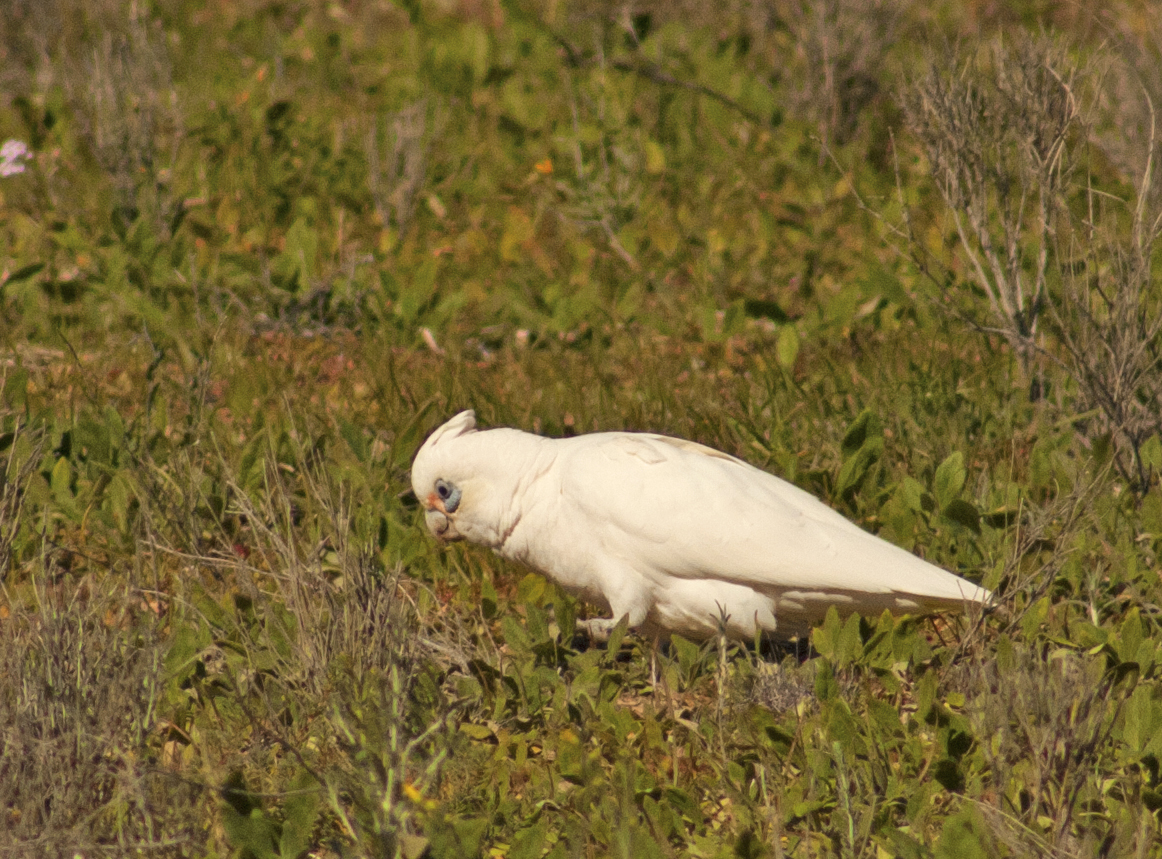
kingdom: Animalia
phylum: Chordata
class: Aves
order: Psittaciformes
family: Psittacidae
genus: Cacatua
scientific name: Cacatua sanguinea
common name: Little corella
